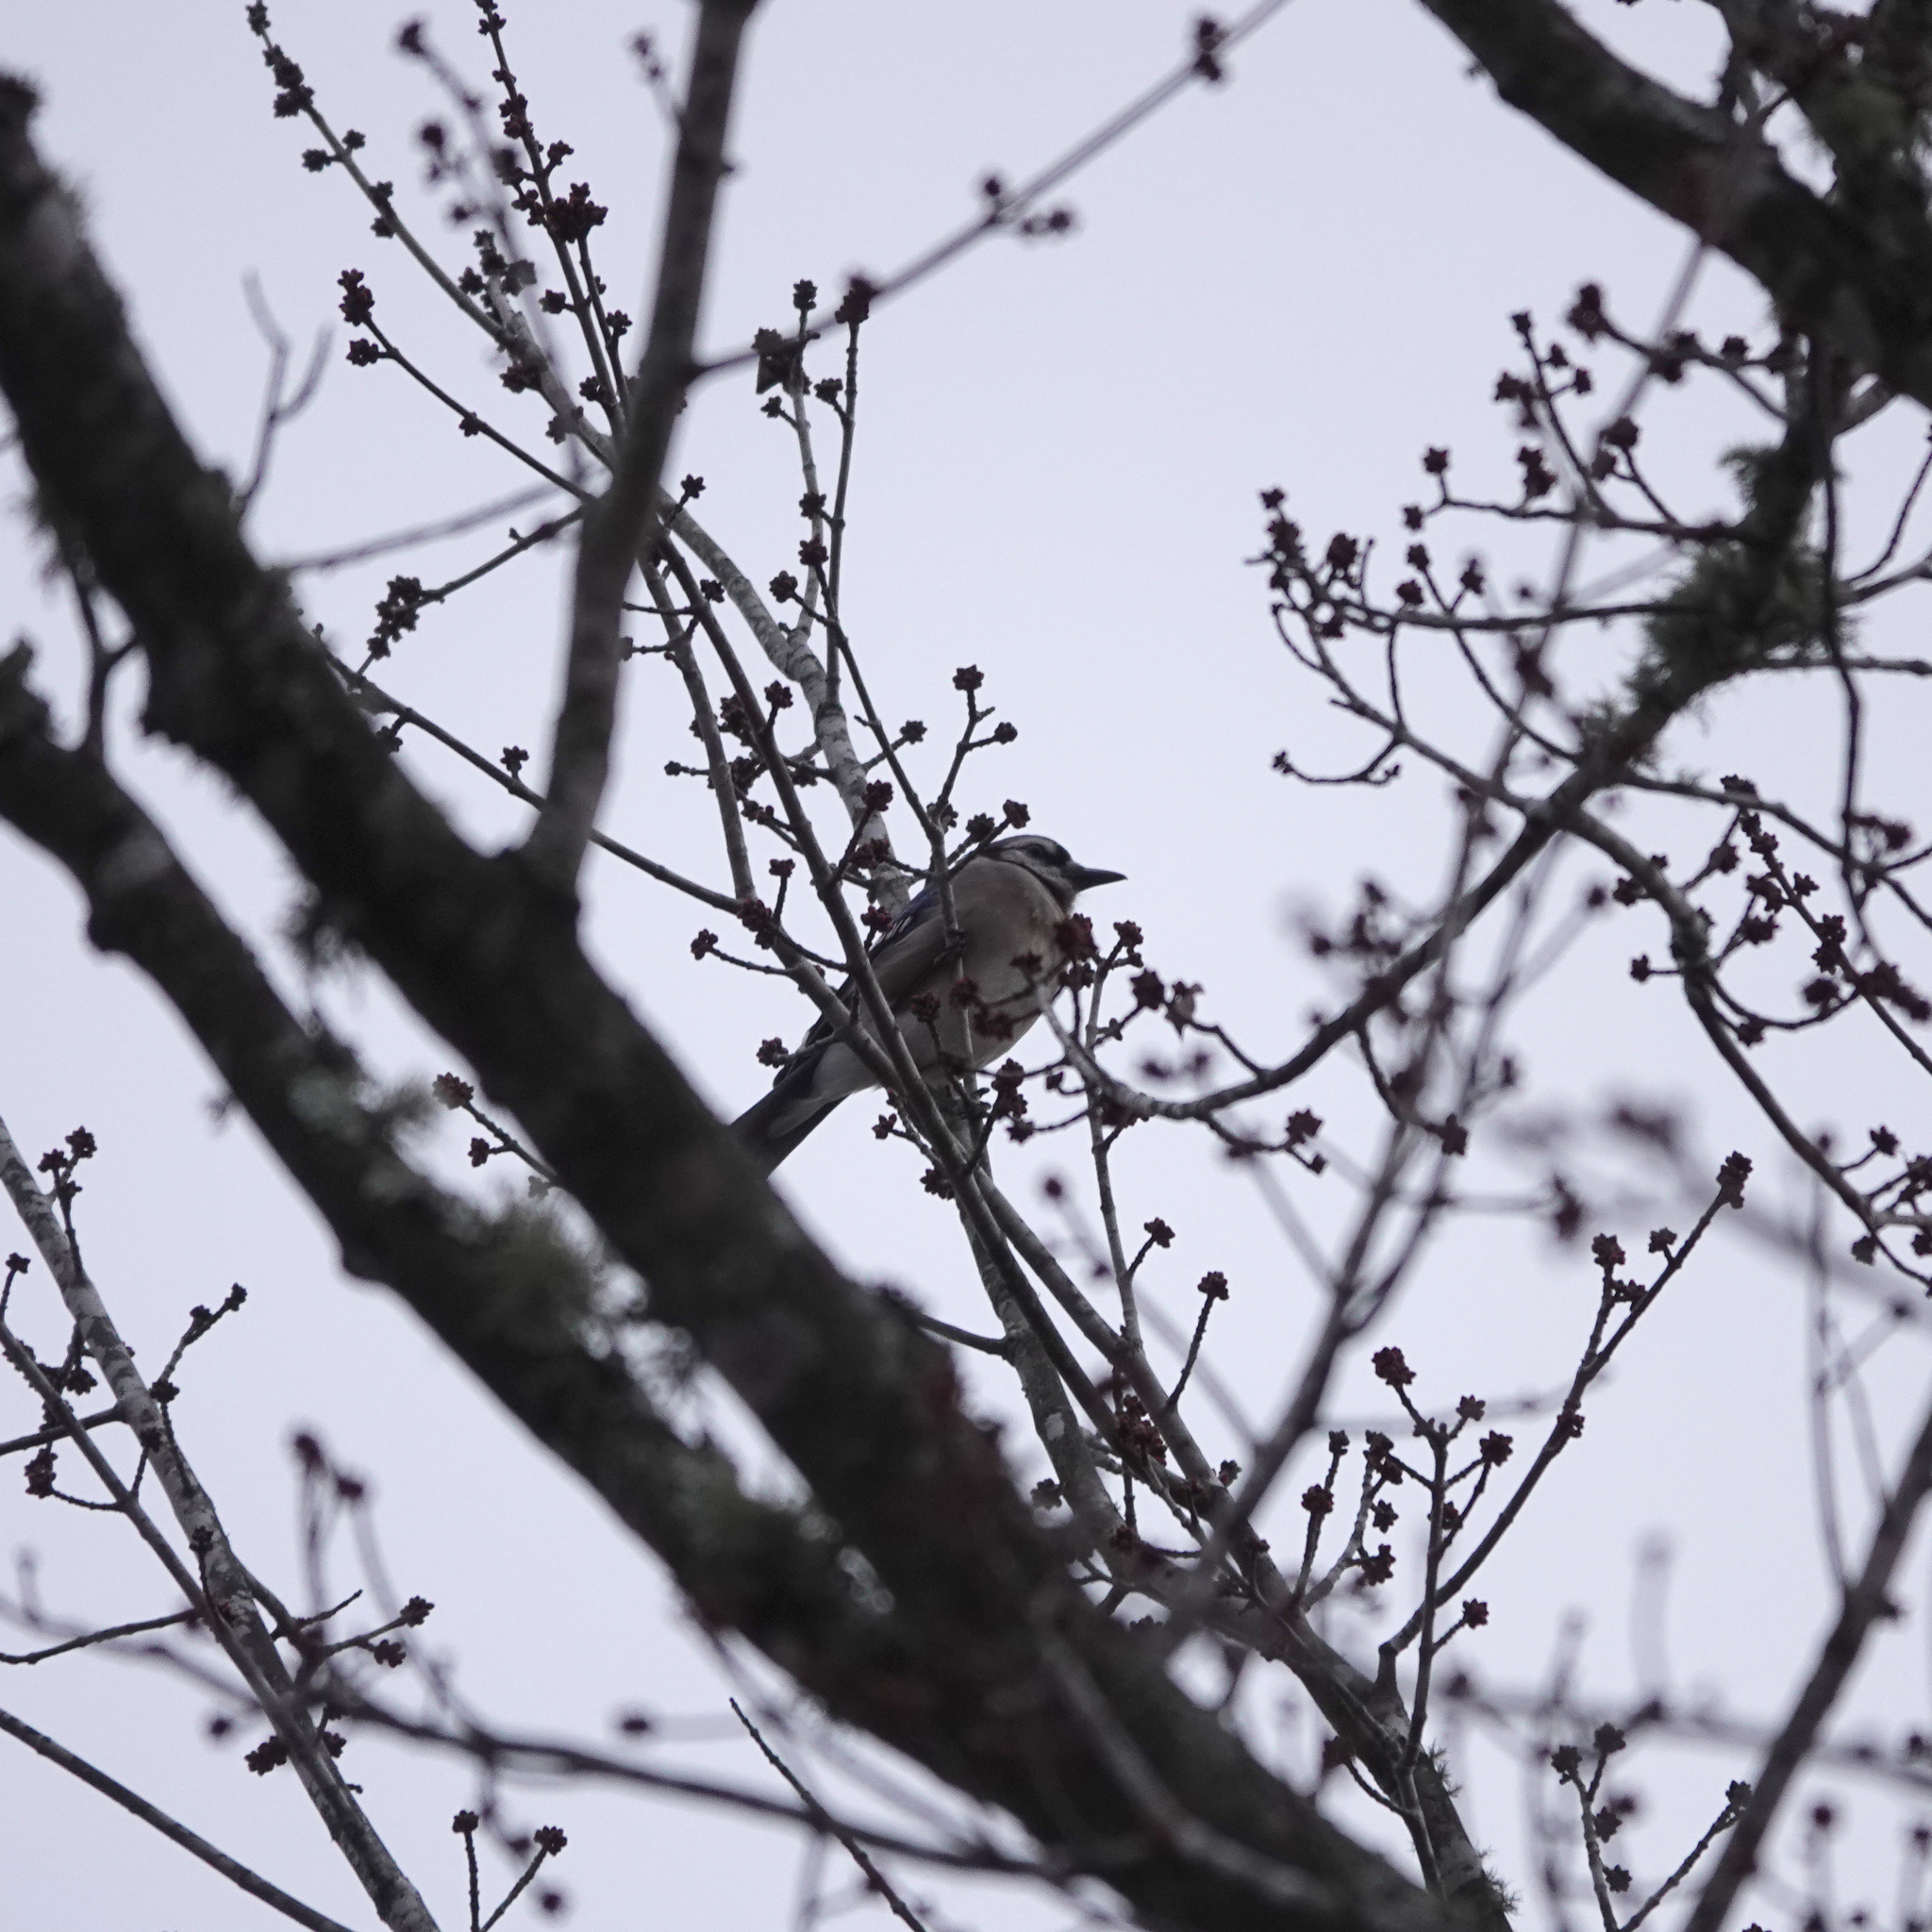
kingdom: Animalia
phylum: Chordata
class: Aves
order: Passeriformes
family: Corvidae
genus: Cyanocitta
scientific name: Cyanocitta cristata
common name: Blue jay
